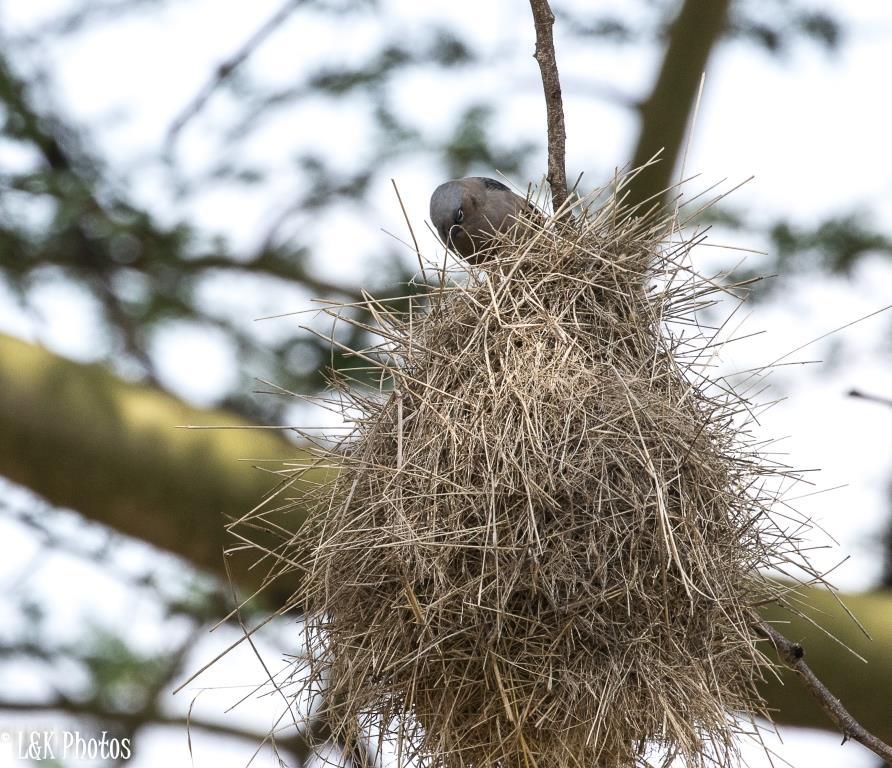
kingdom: Animalia
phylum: Chordata
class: Aves
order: Passeriformes
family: Passeridae
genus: Pseudonigrita
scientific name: Pseudonigrita arnaudi
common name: Grey-capped social weaver
